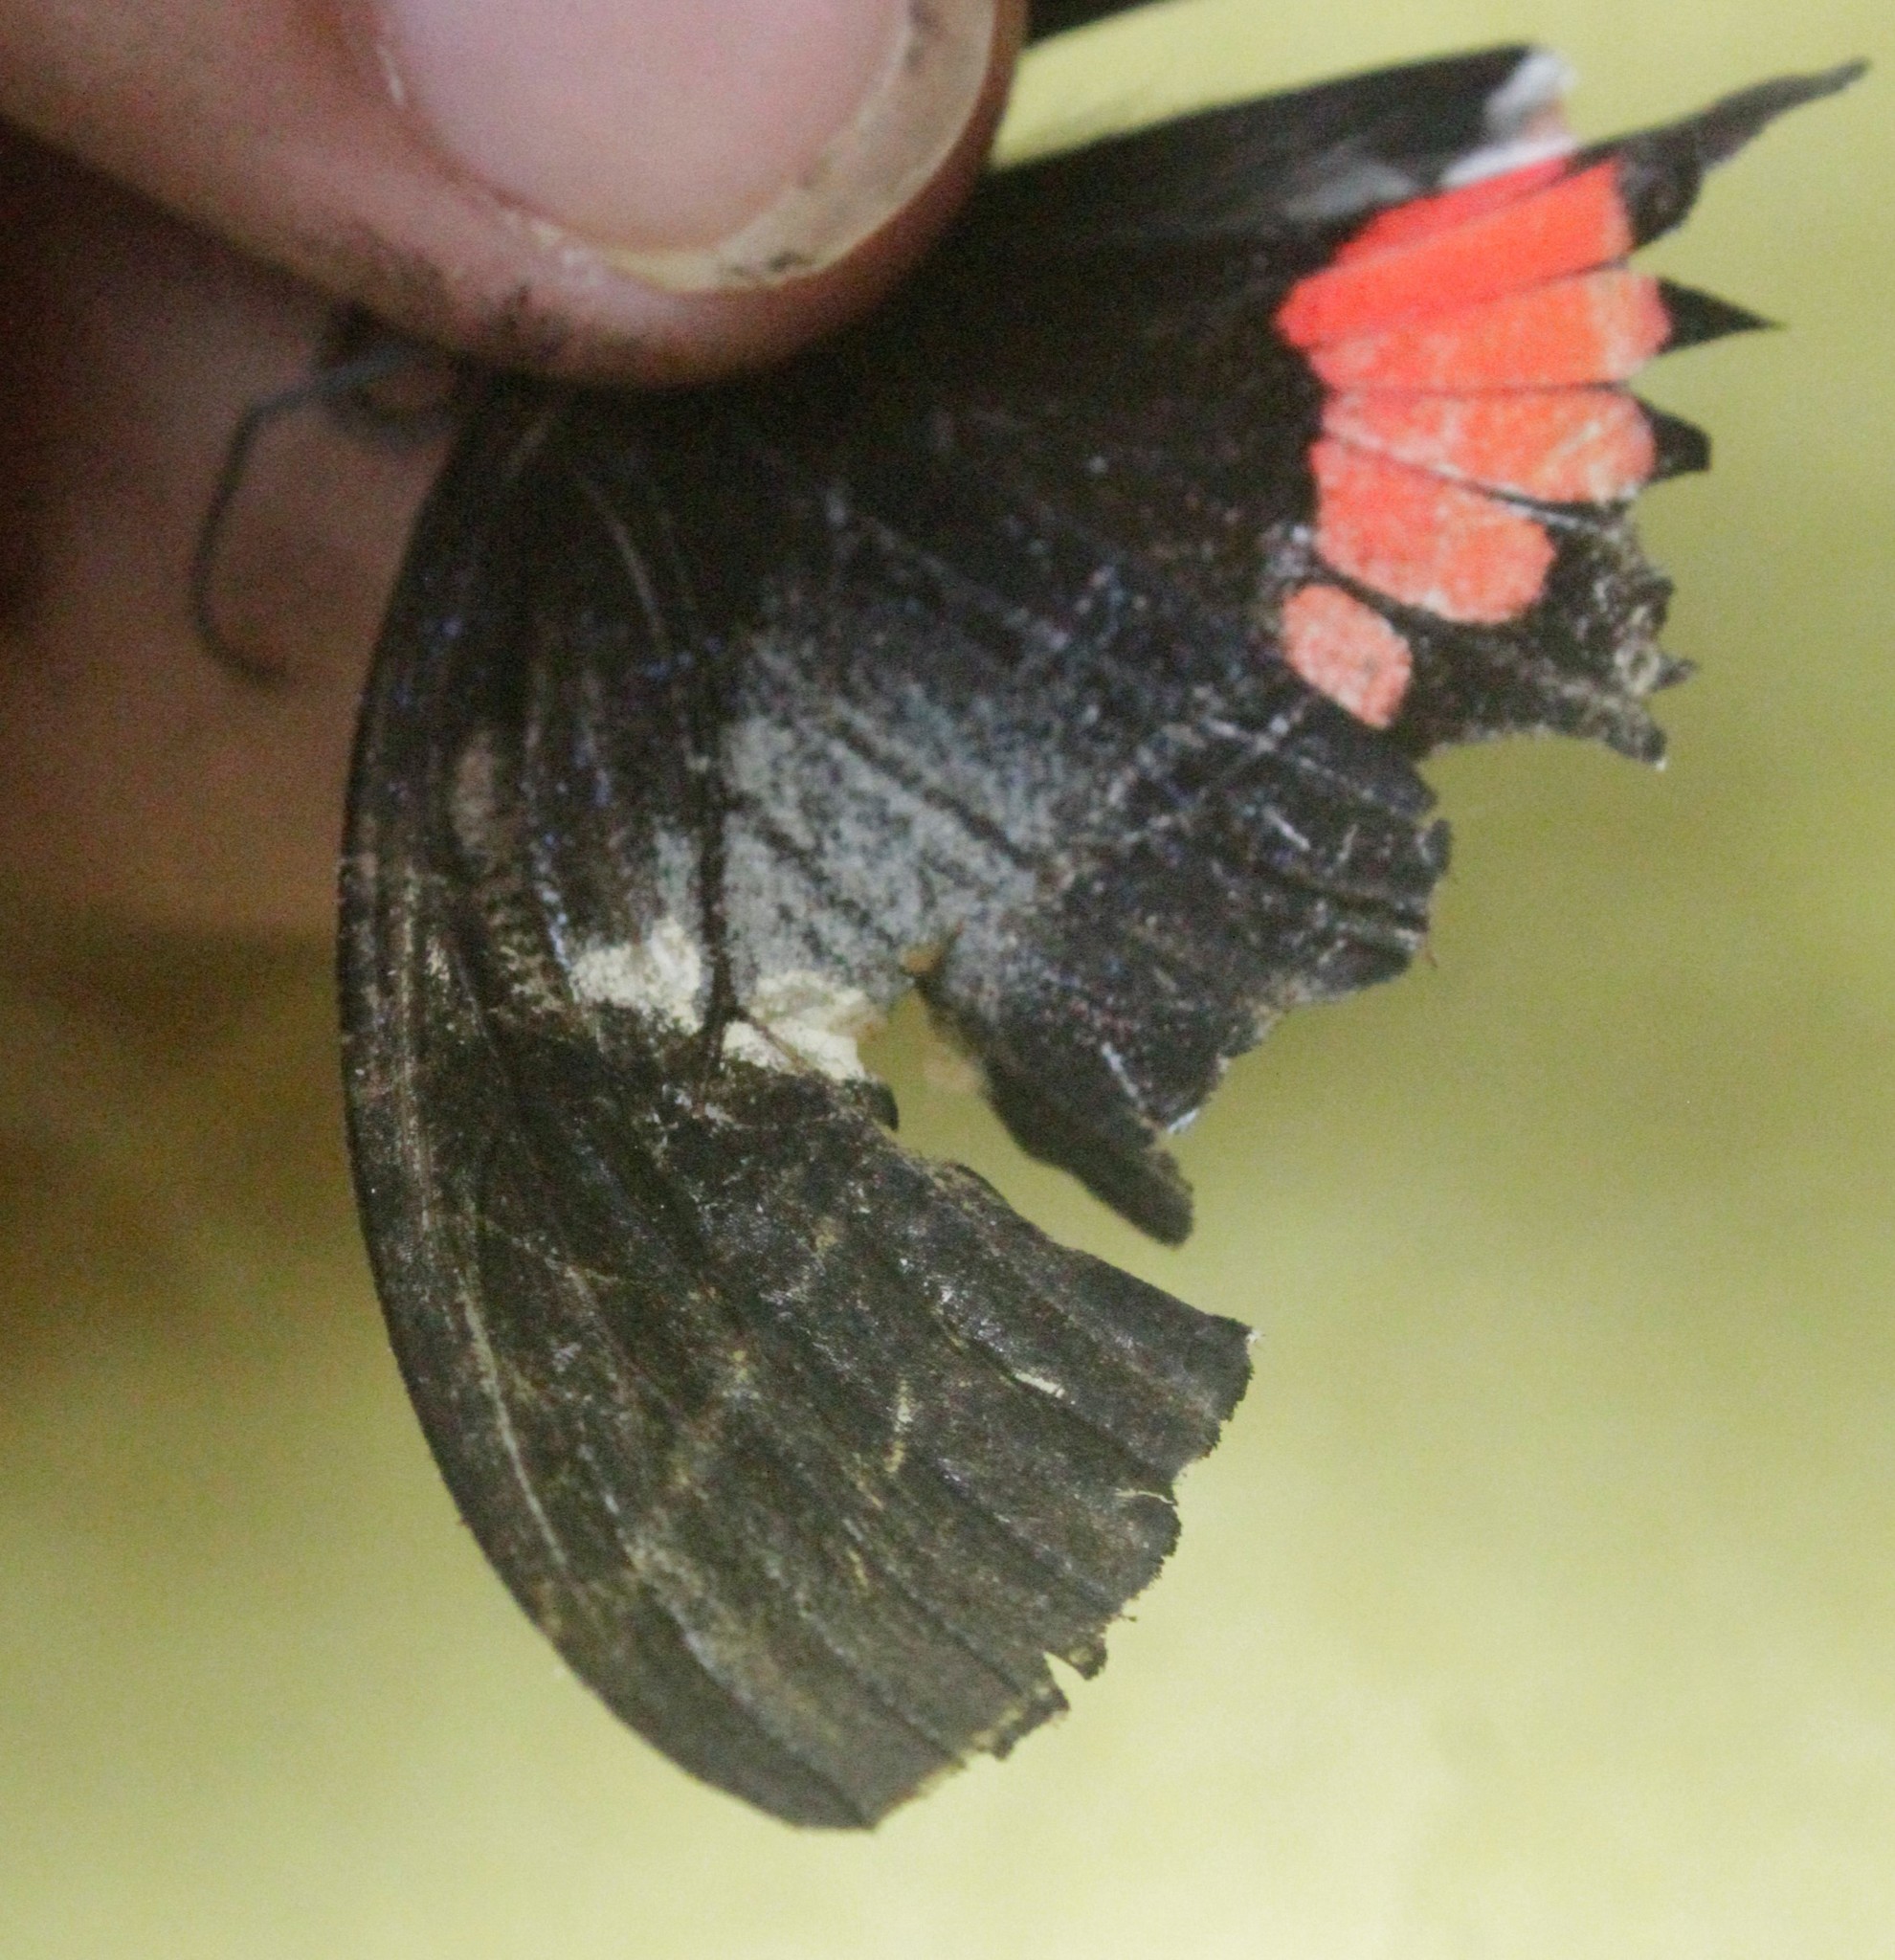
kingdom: Animalia
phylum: Arthropoda
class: Insecta
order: Lepidoptera
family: Papilionidae
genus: Parides
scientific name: Parides iphidamas
